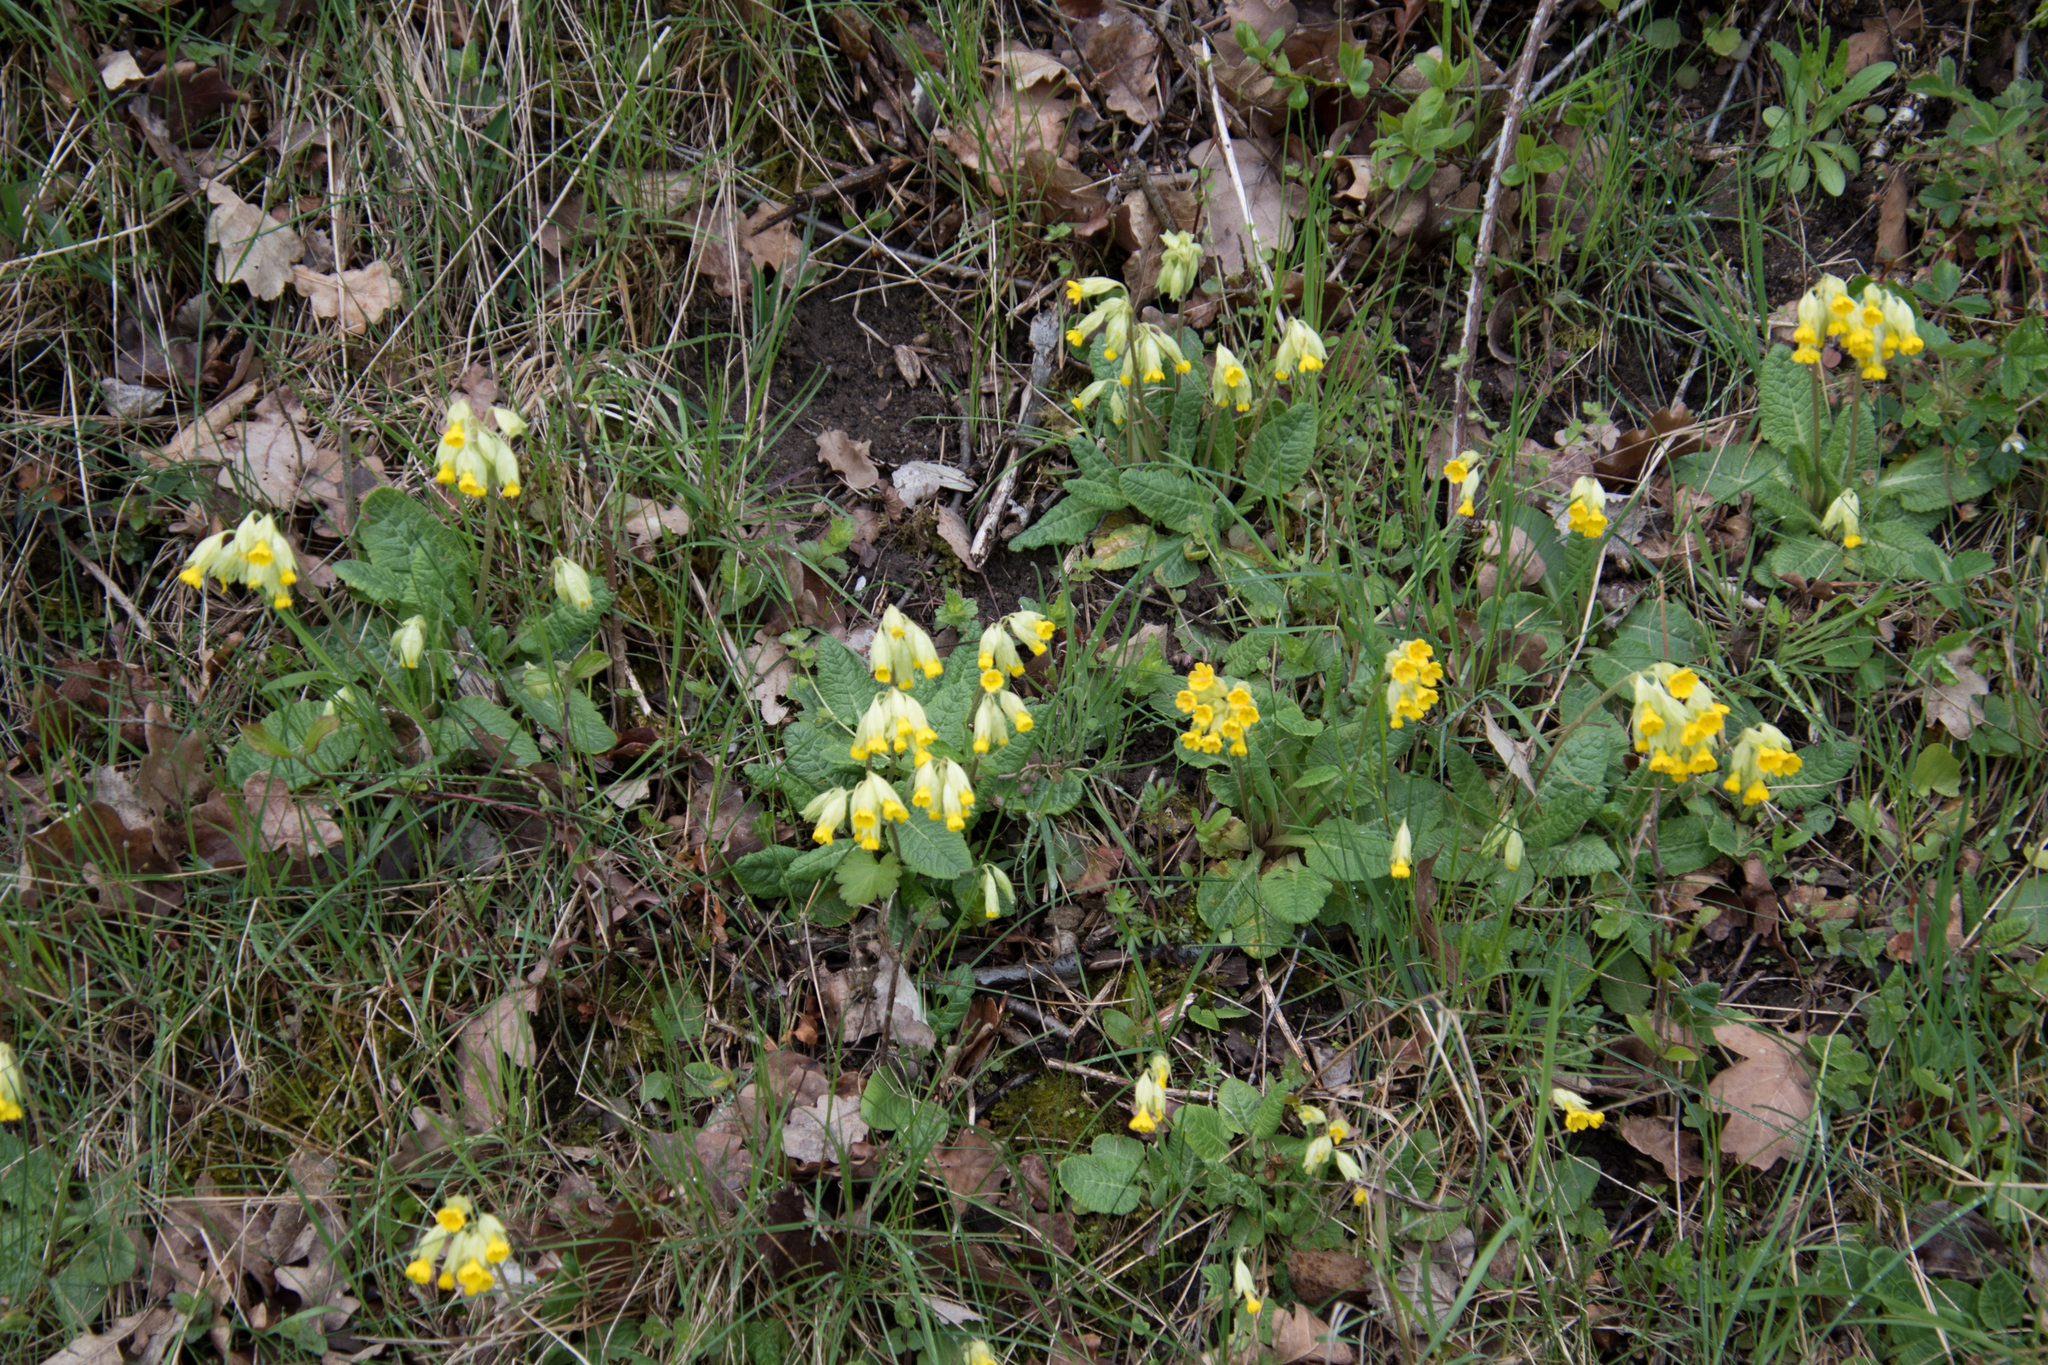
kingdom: Plantae
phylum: Tracheophyta
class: Magnoliopsida
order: Ericales
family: Primulaceae
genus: Primula
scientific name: Primula veris
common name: Cowslip
